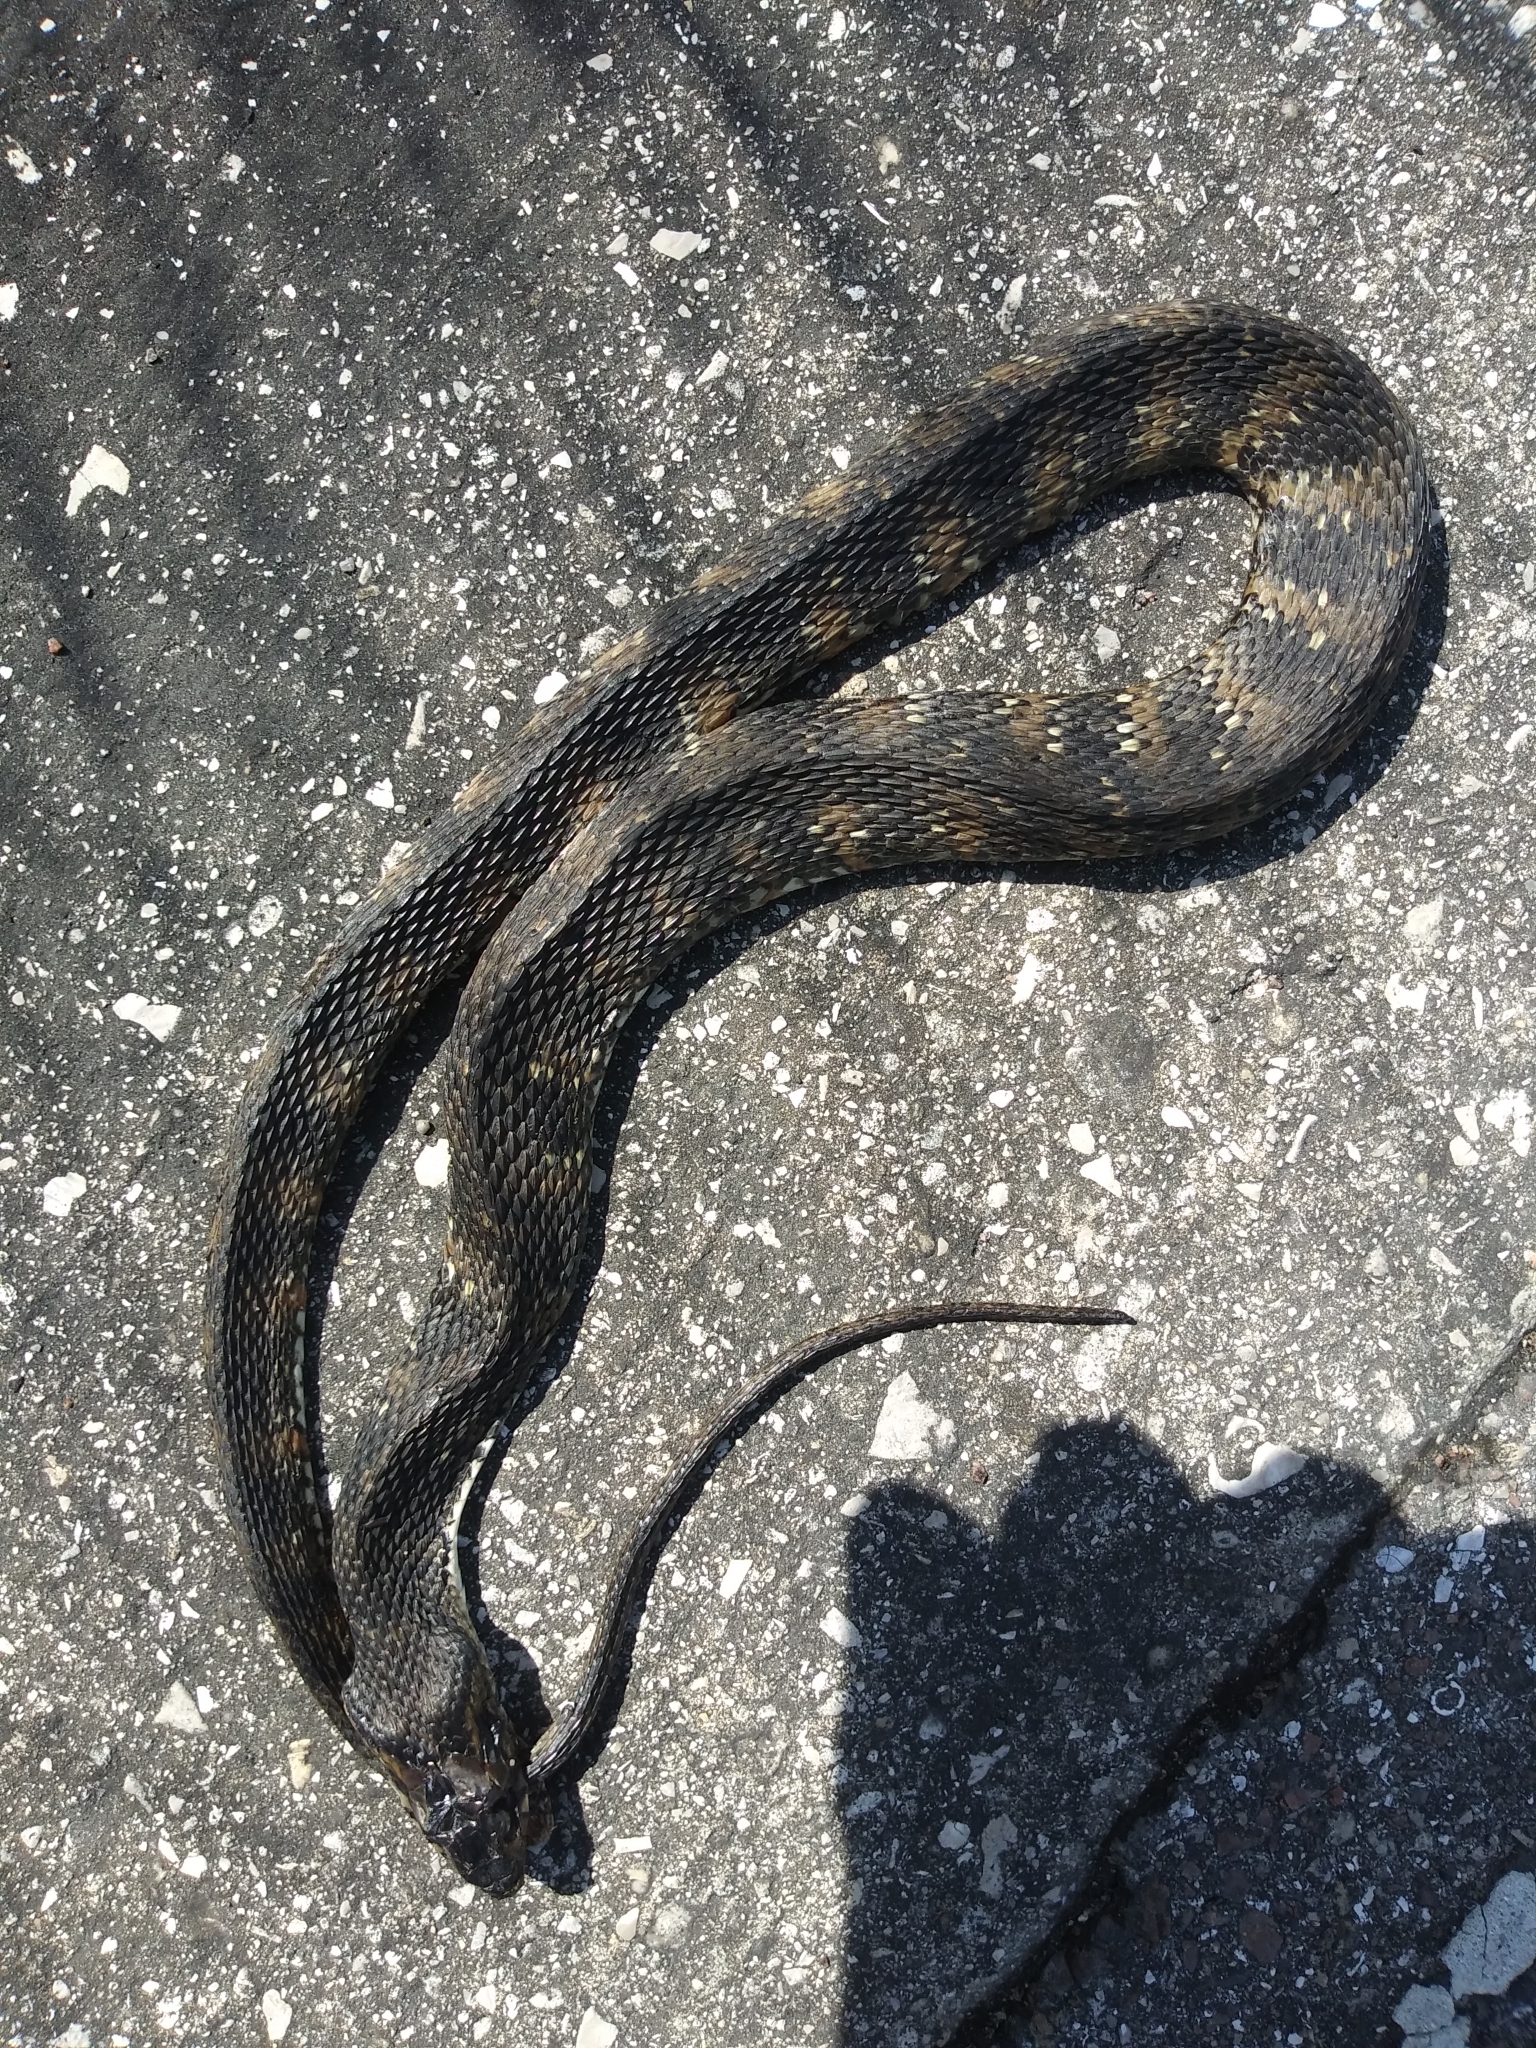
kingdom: Animalia
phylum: Chordata
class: Squamata
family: Colubridae
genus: Nerodia
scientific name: Nerodia fasciata
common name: Southern water snake
